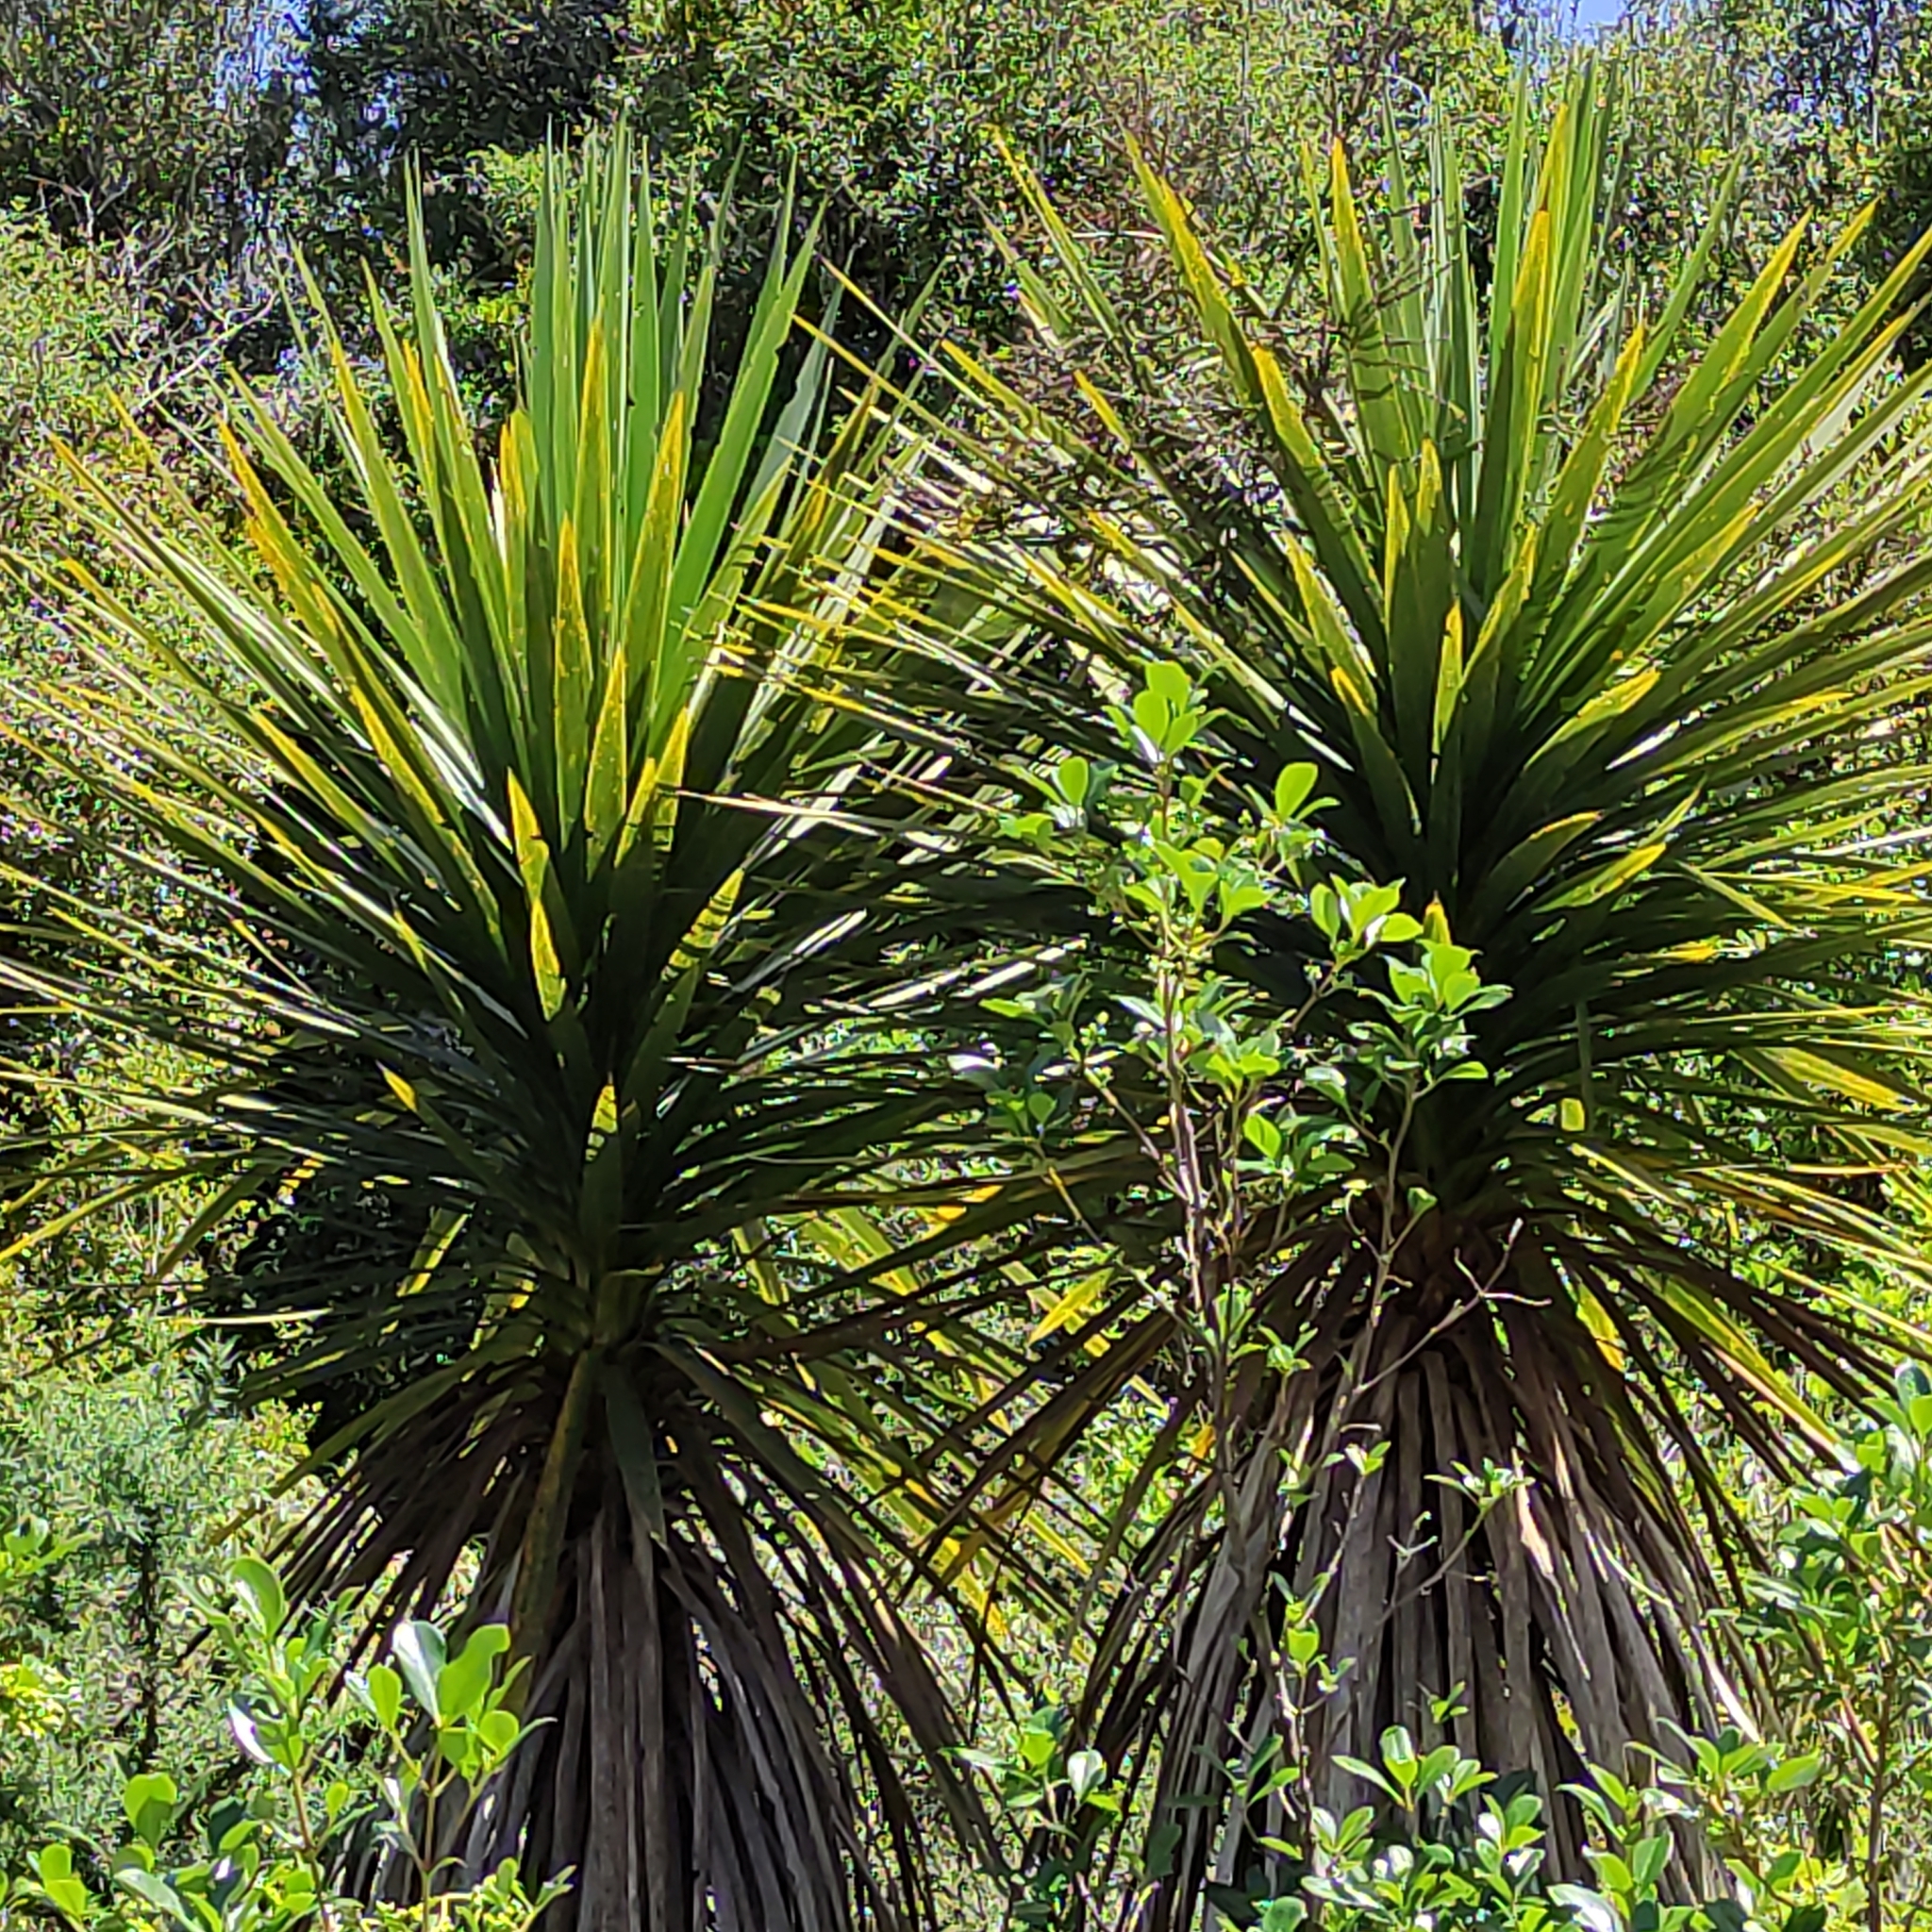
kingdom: Plantae
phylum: Tracheophyta
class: Liliopsida
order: Asparagales
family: Asparagaceae
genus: Cordyline
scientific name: Cordyline australis
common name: Cabbage-palm
